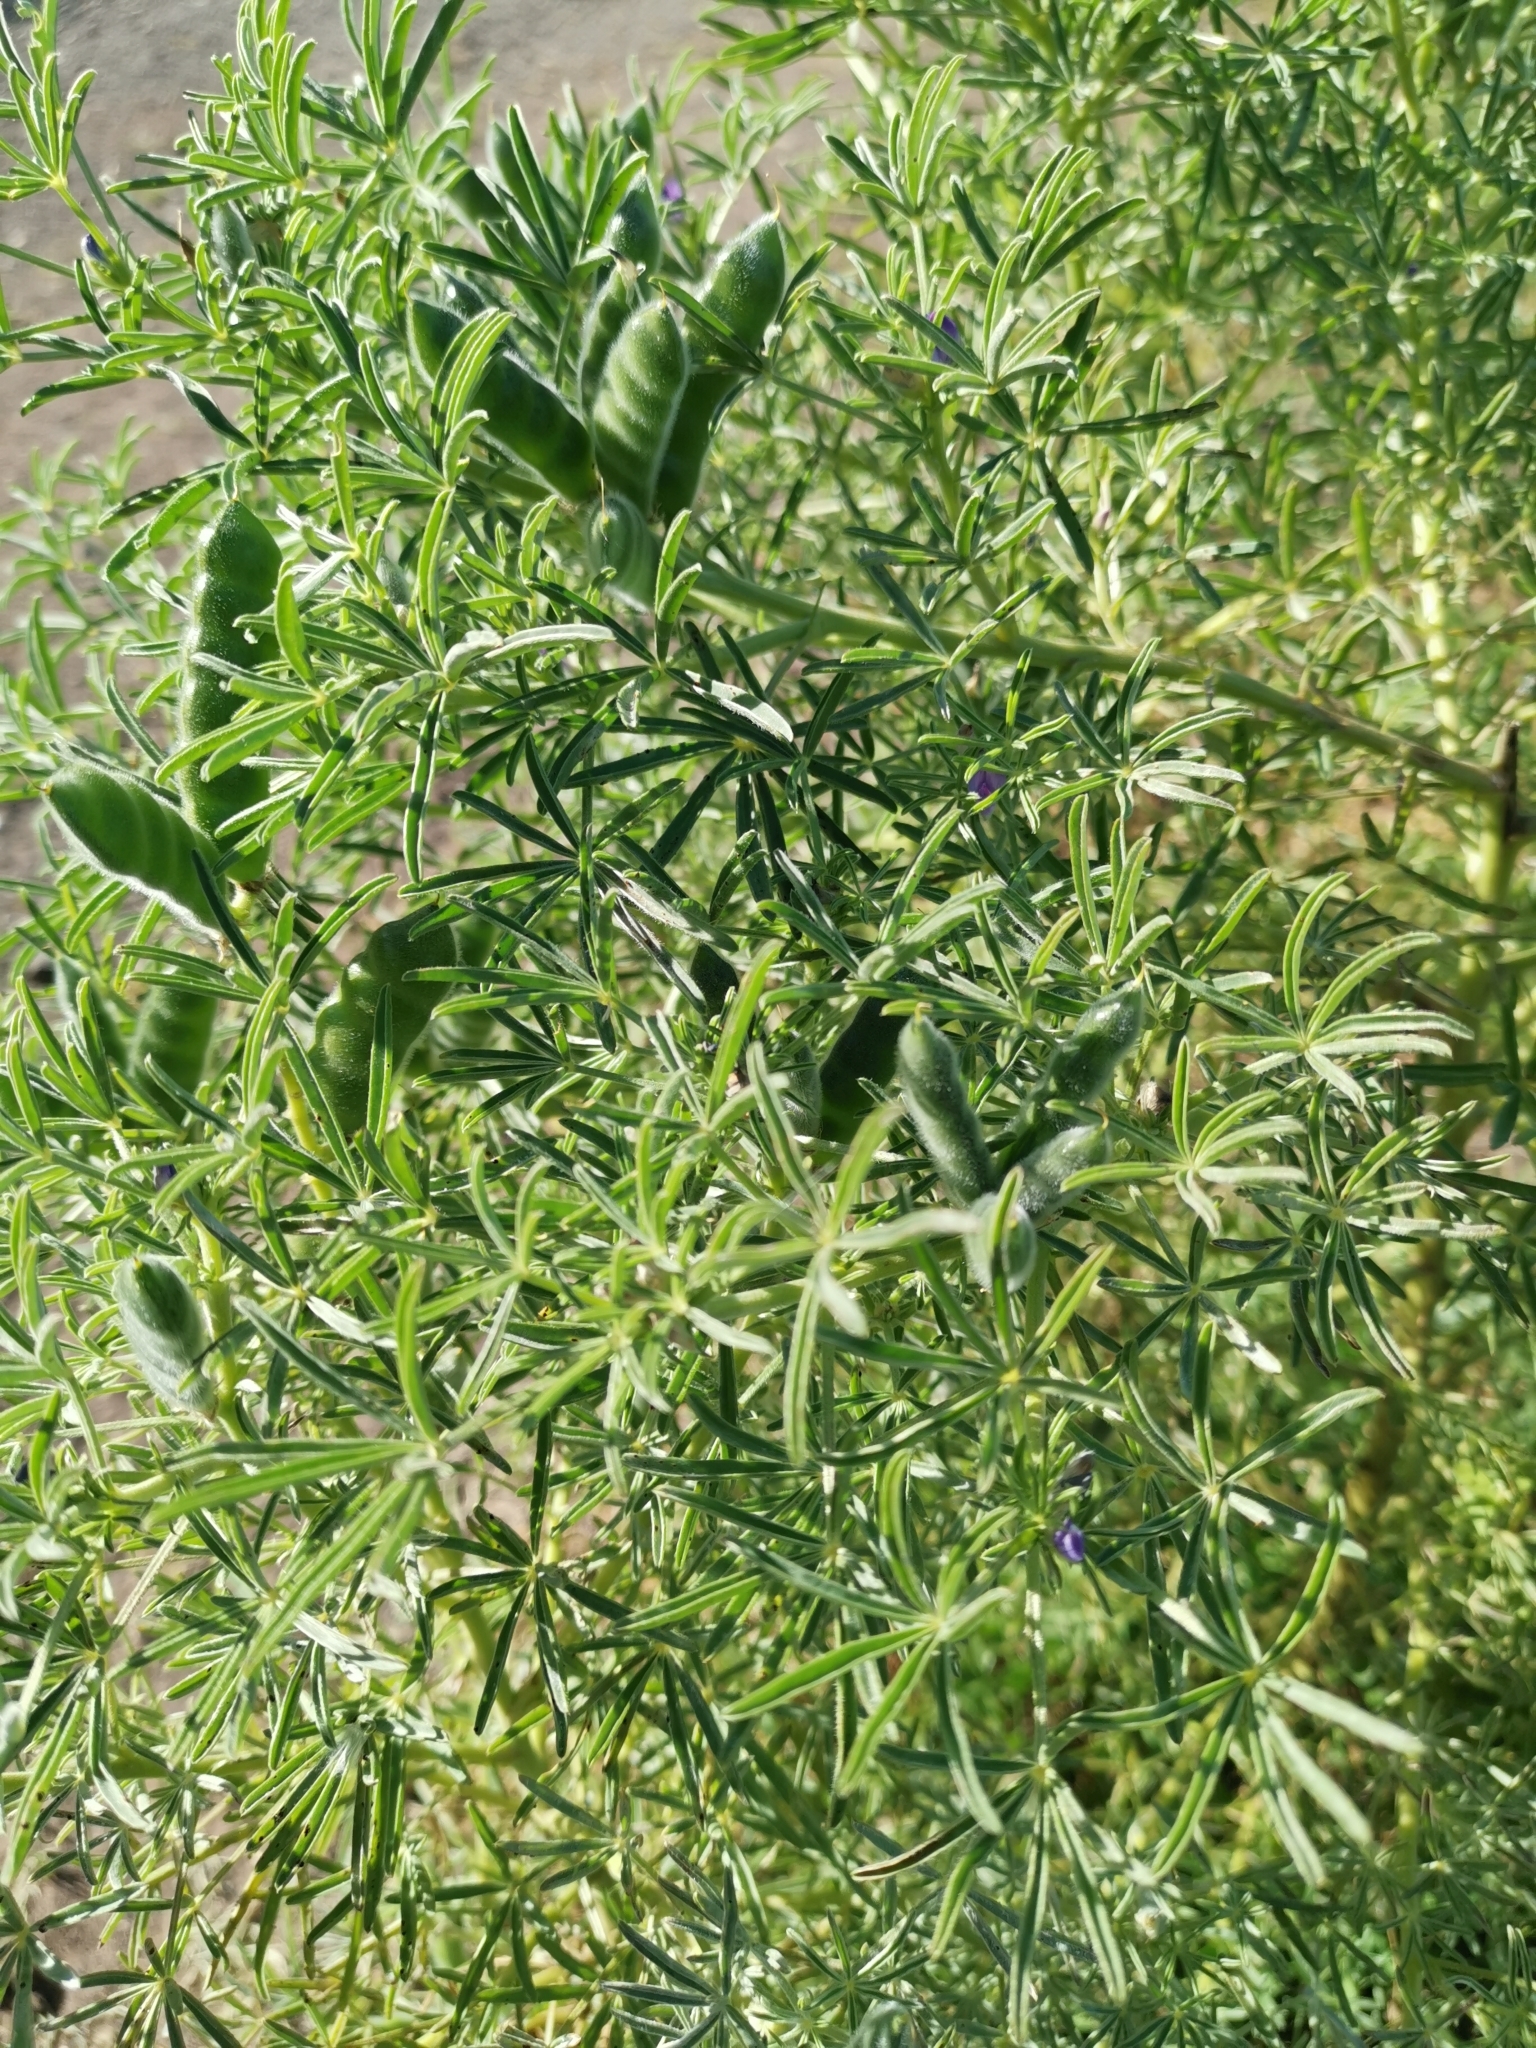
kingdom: Plantae
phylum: Tracheophyta
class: Magnoliopsida
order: Fabales
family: Fabaceae
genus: Lupinus
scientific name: Lupinus angustifolius
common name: Narrow-leaved lupin
